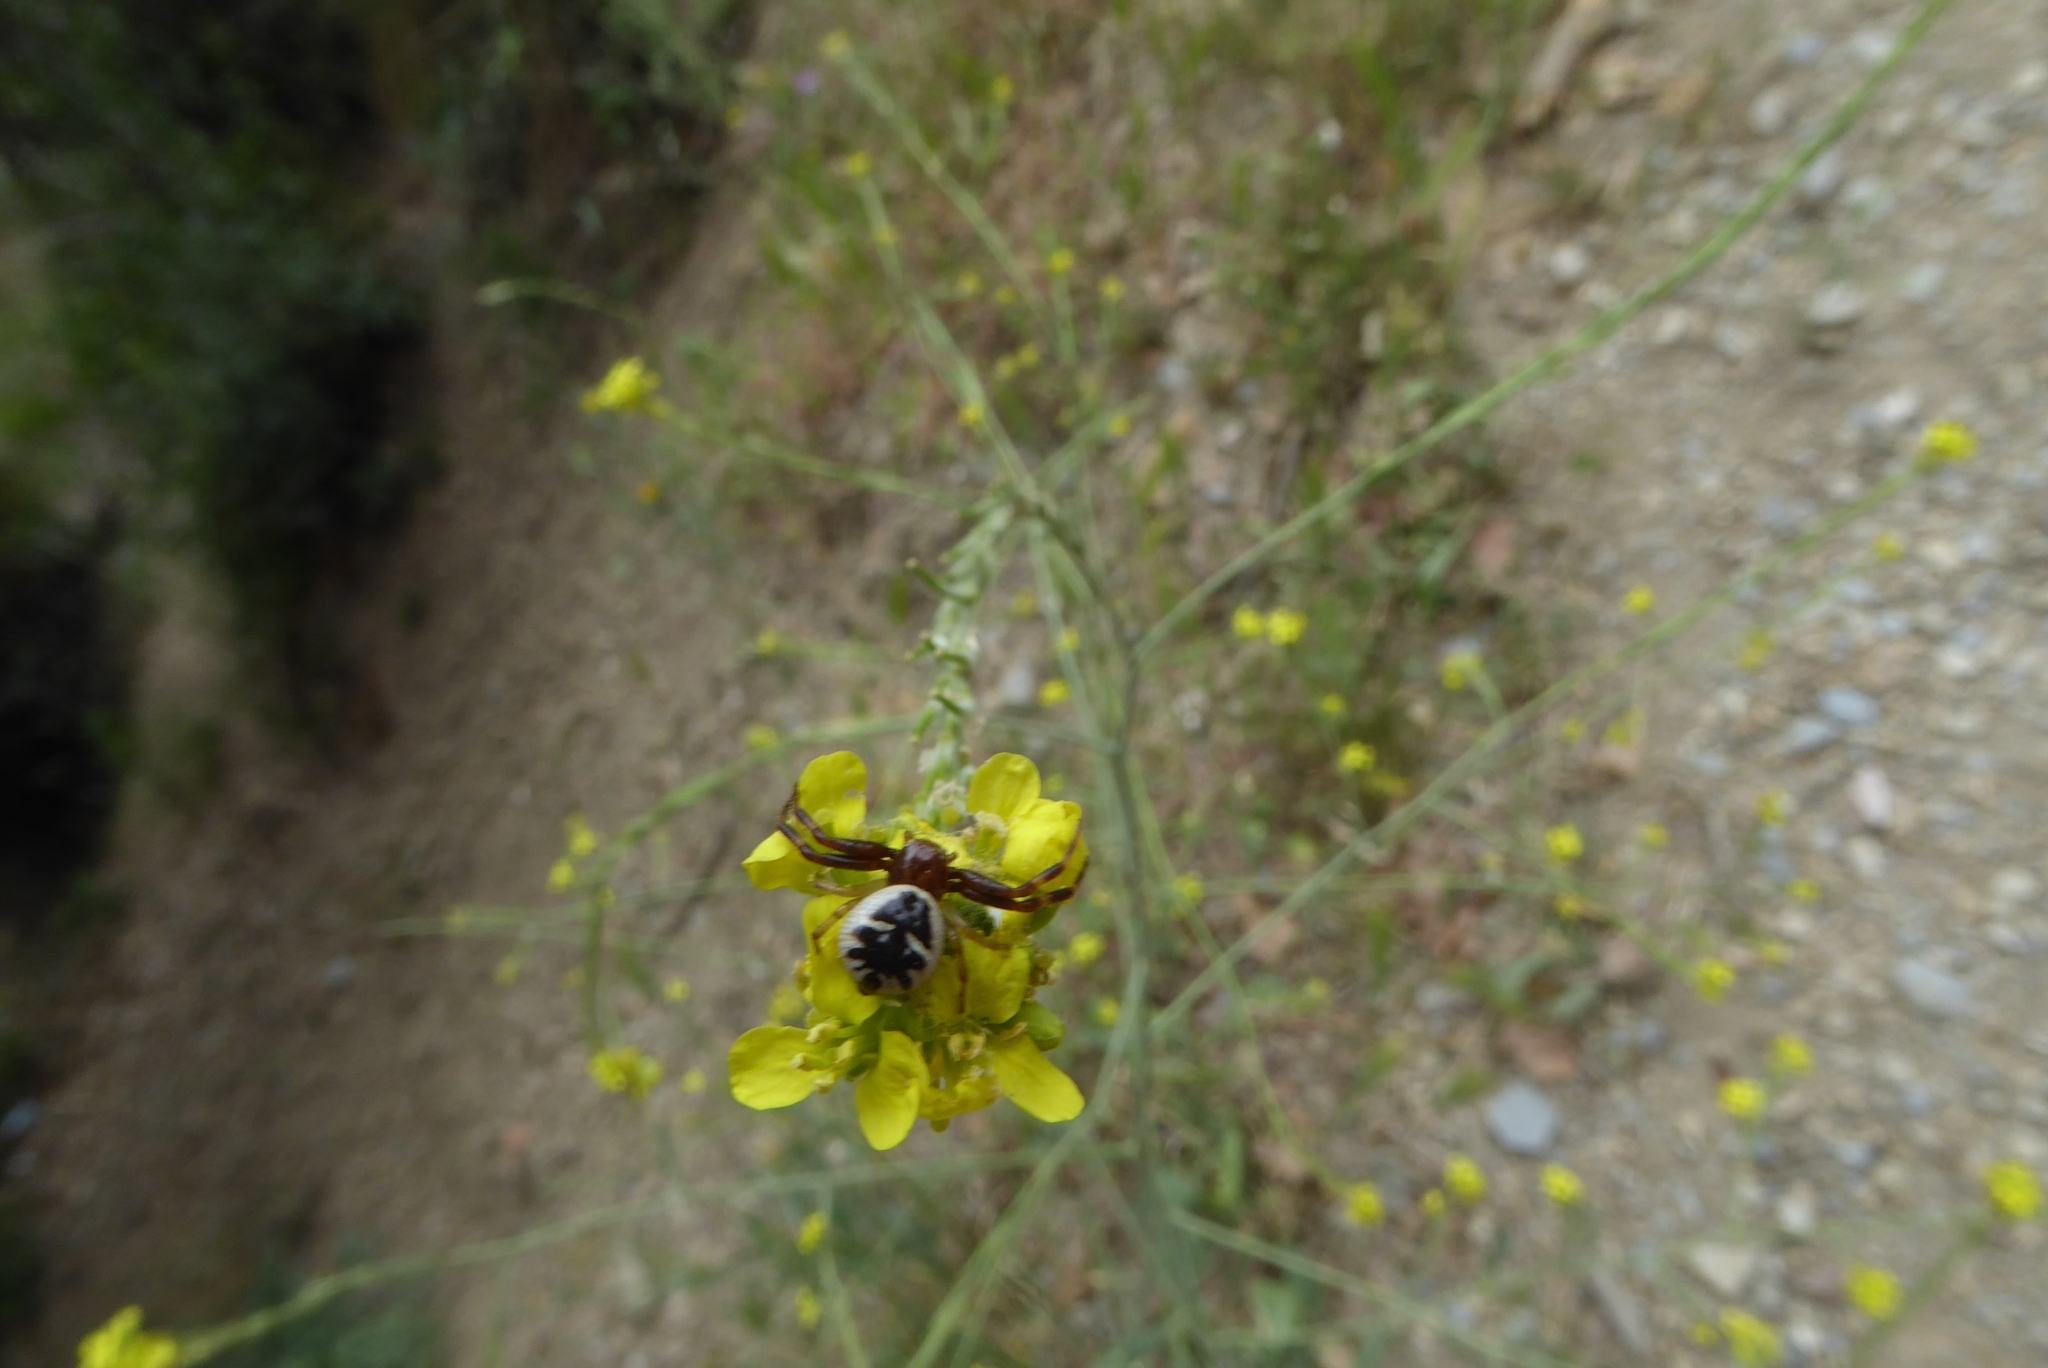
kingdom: Animalia
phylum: Arthropoda
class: Arachnida
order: Araneae
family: Thomisidae
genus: Synema
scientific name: Synema globosum
